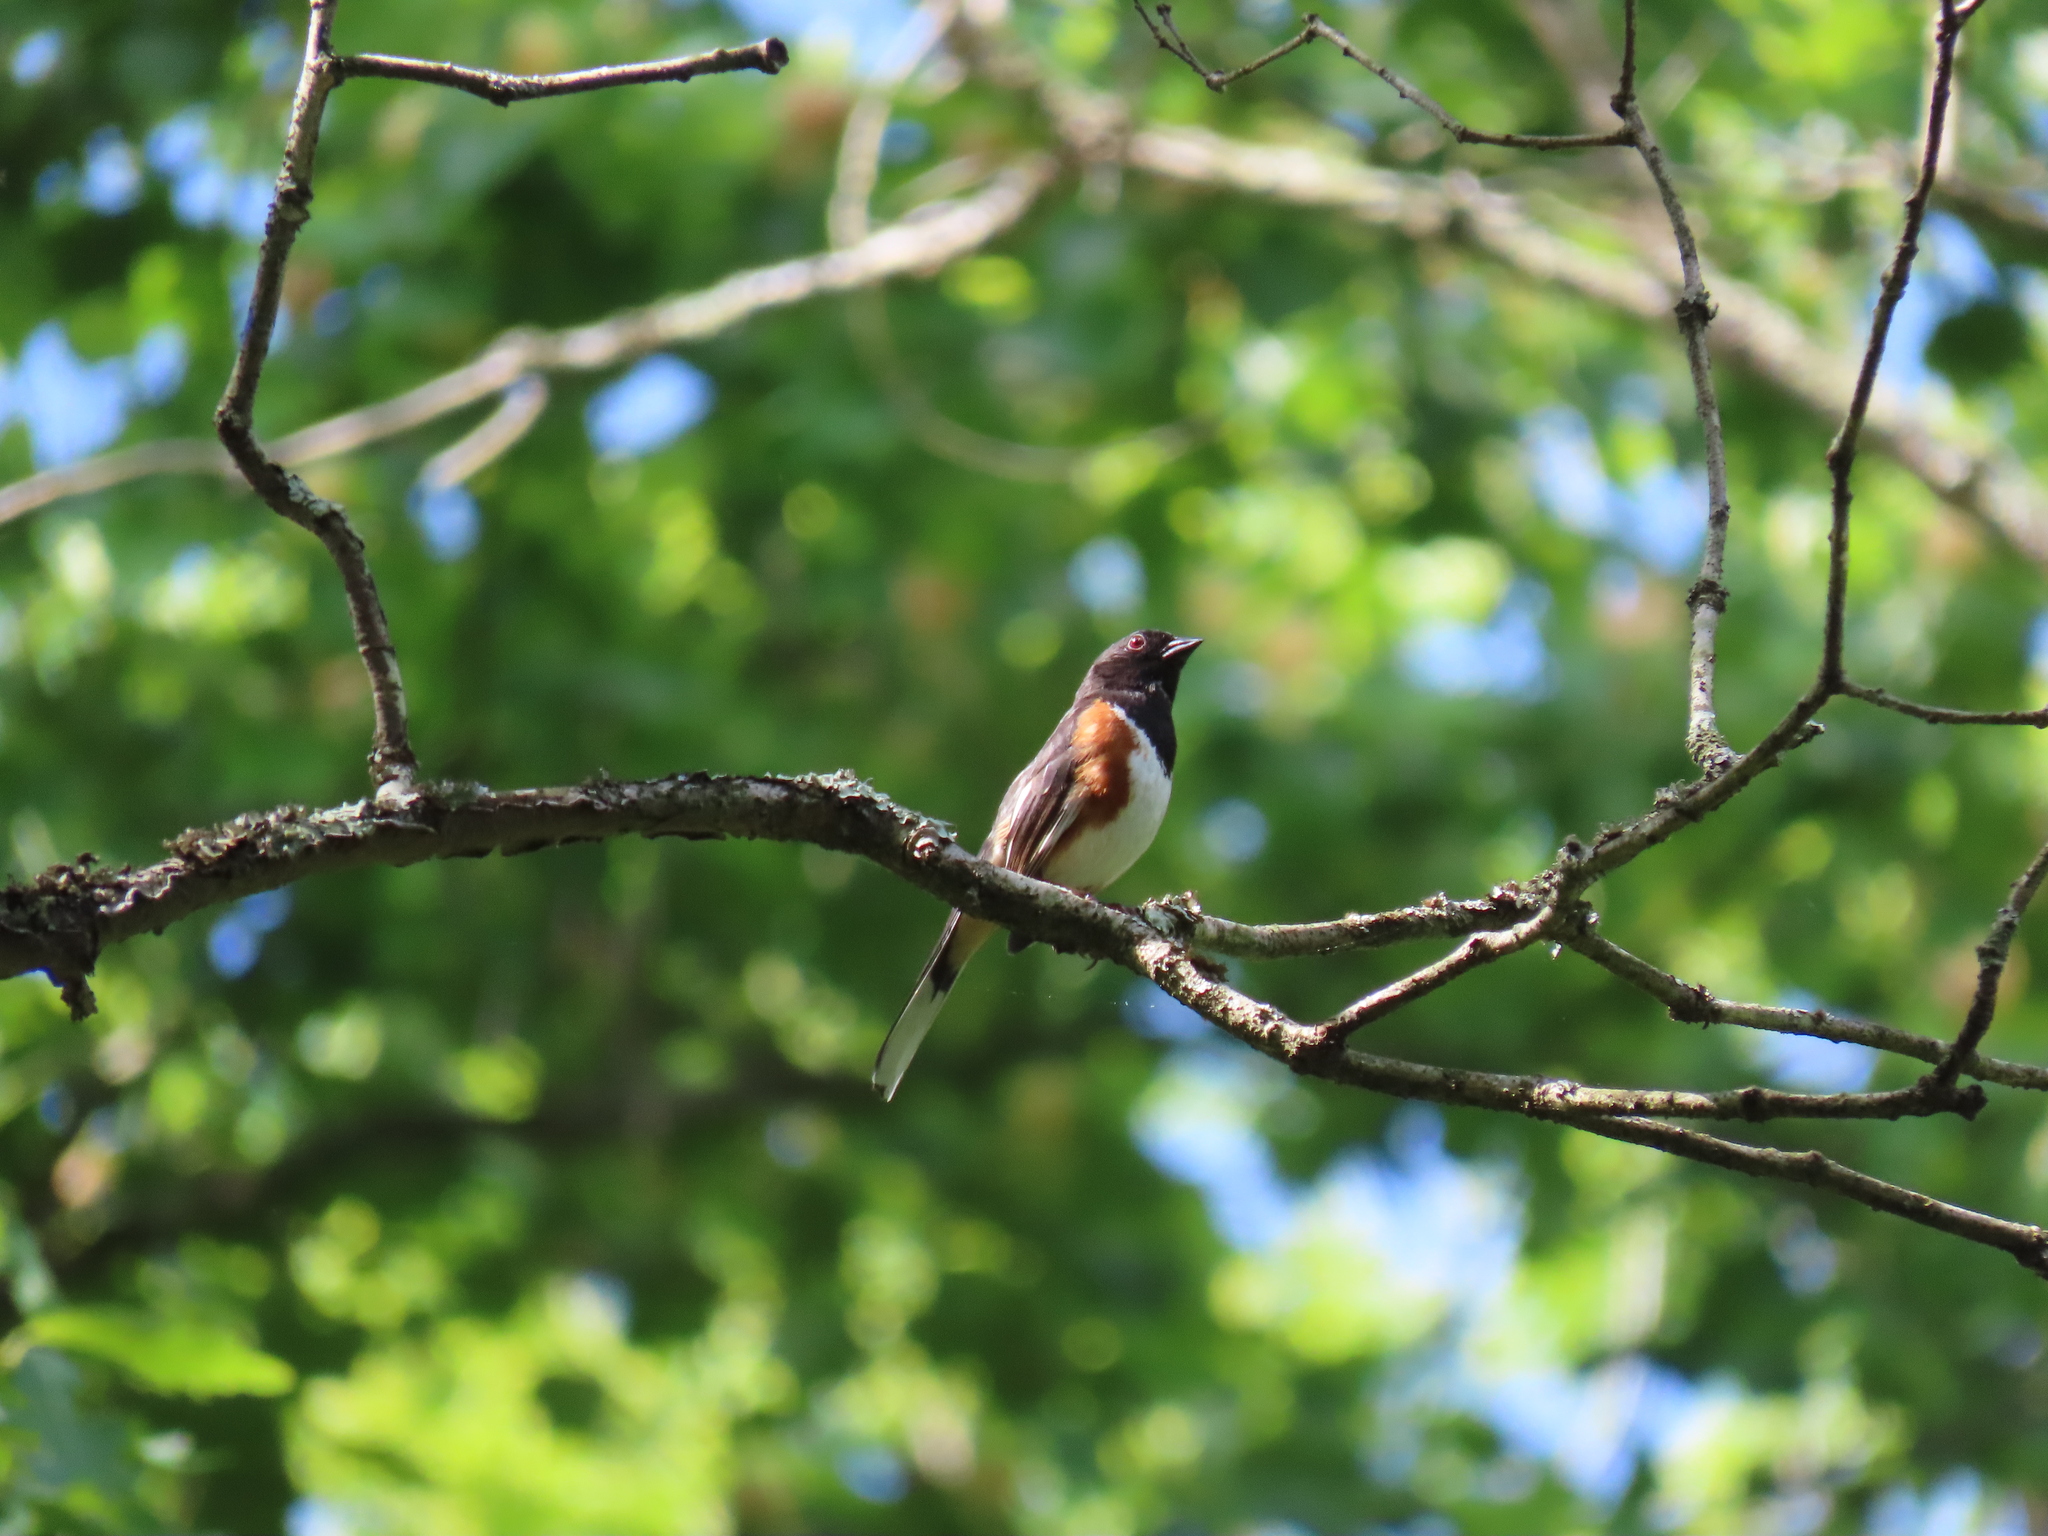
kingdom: Animalia
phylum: Chordata
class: Aves
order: Passeriformes
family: Passerellidae
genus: Pipilo
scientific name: Pipilo erythrophthalmus
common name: Eastern towhee
